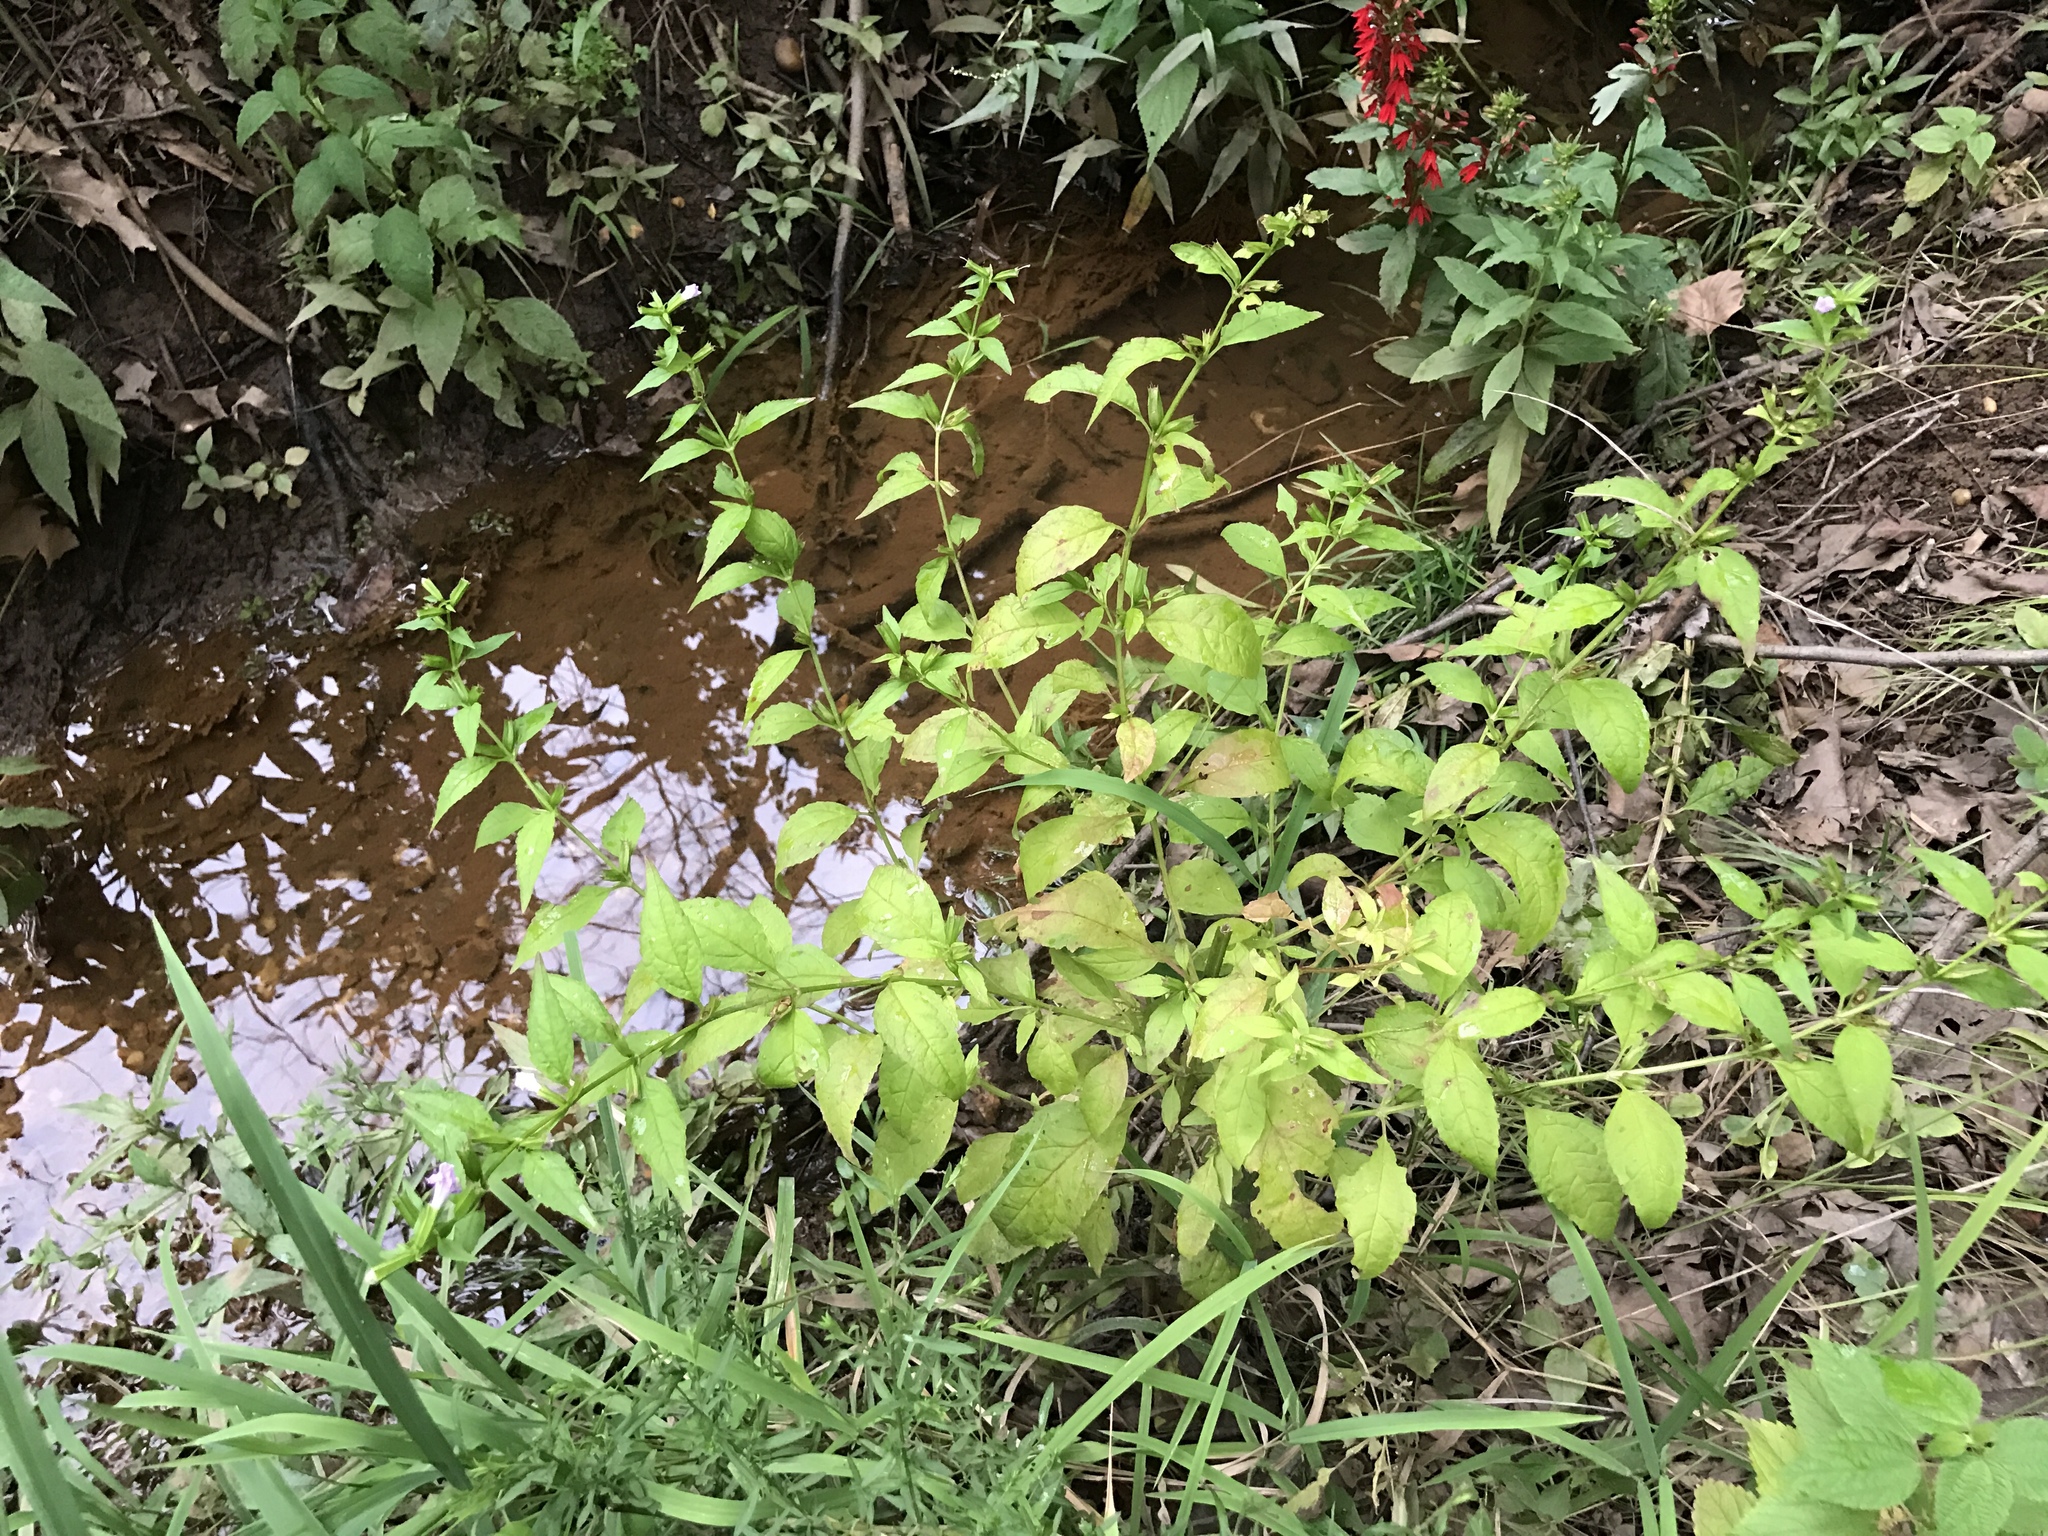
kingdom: Plantae
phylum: Tracheophyta
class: Magnoliopsida
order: Lamiales
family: Phrymaceae
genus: Mimulus
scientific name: Mimulus alatus
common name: Sharp-wing monkey-flower
